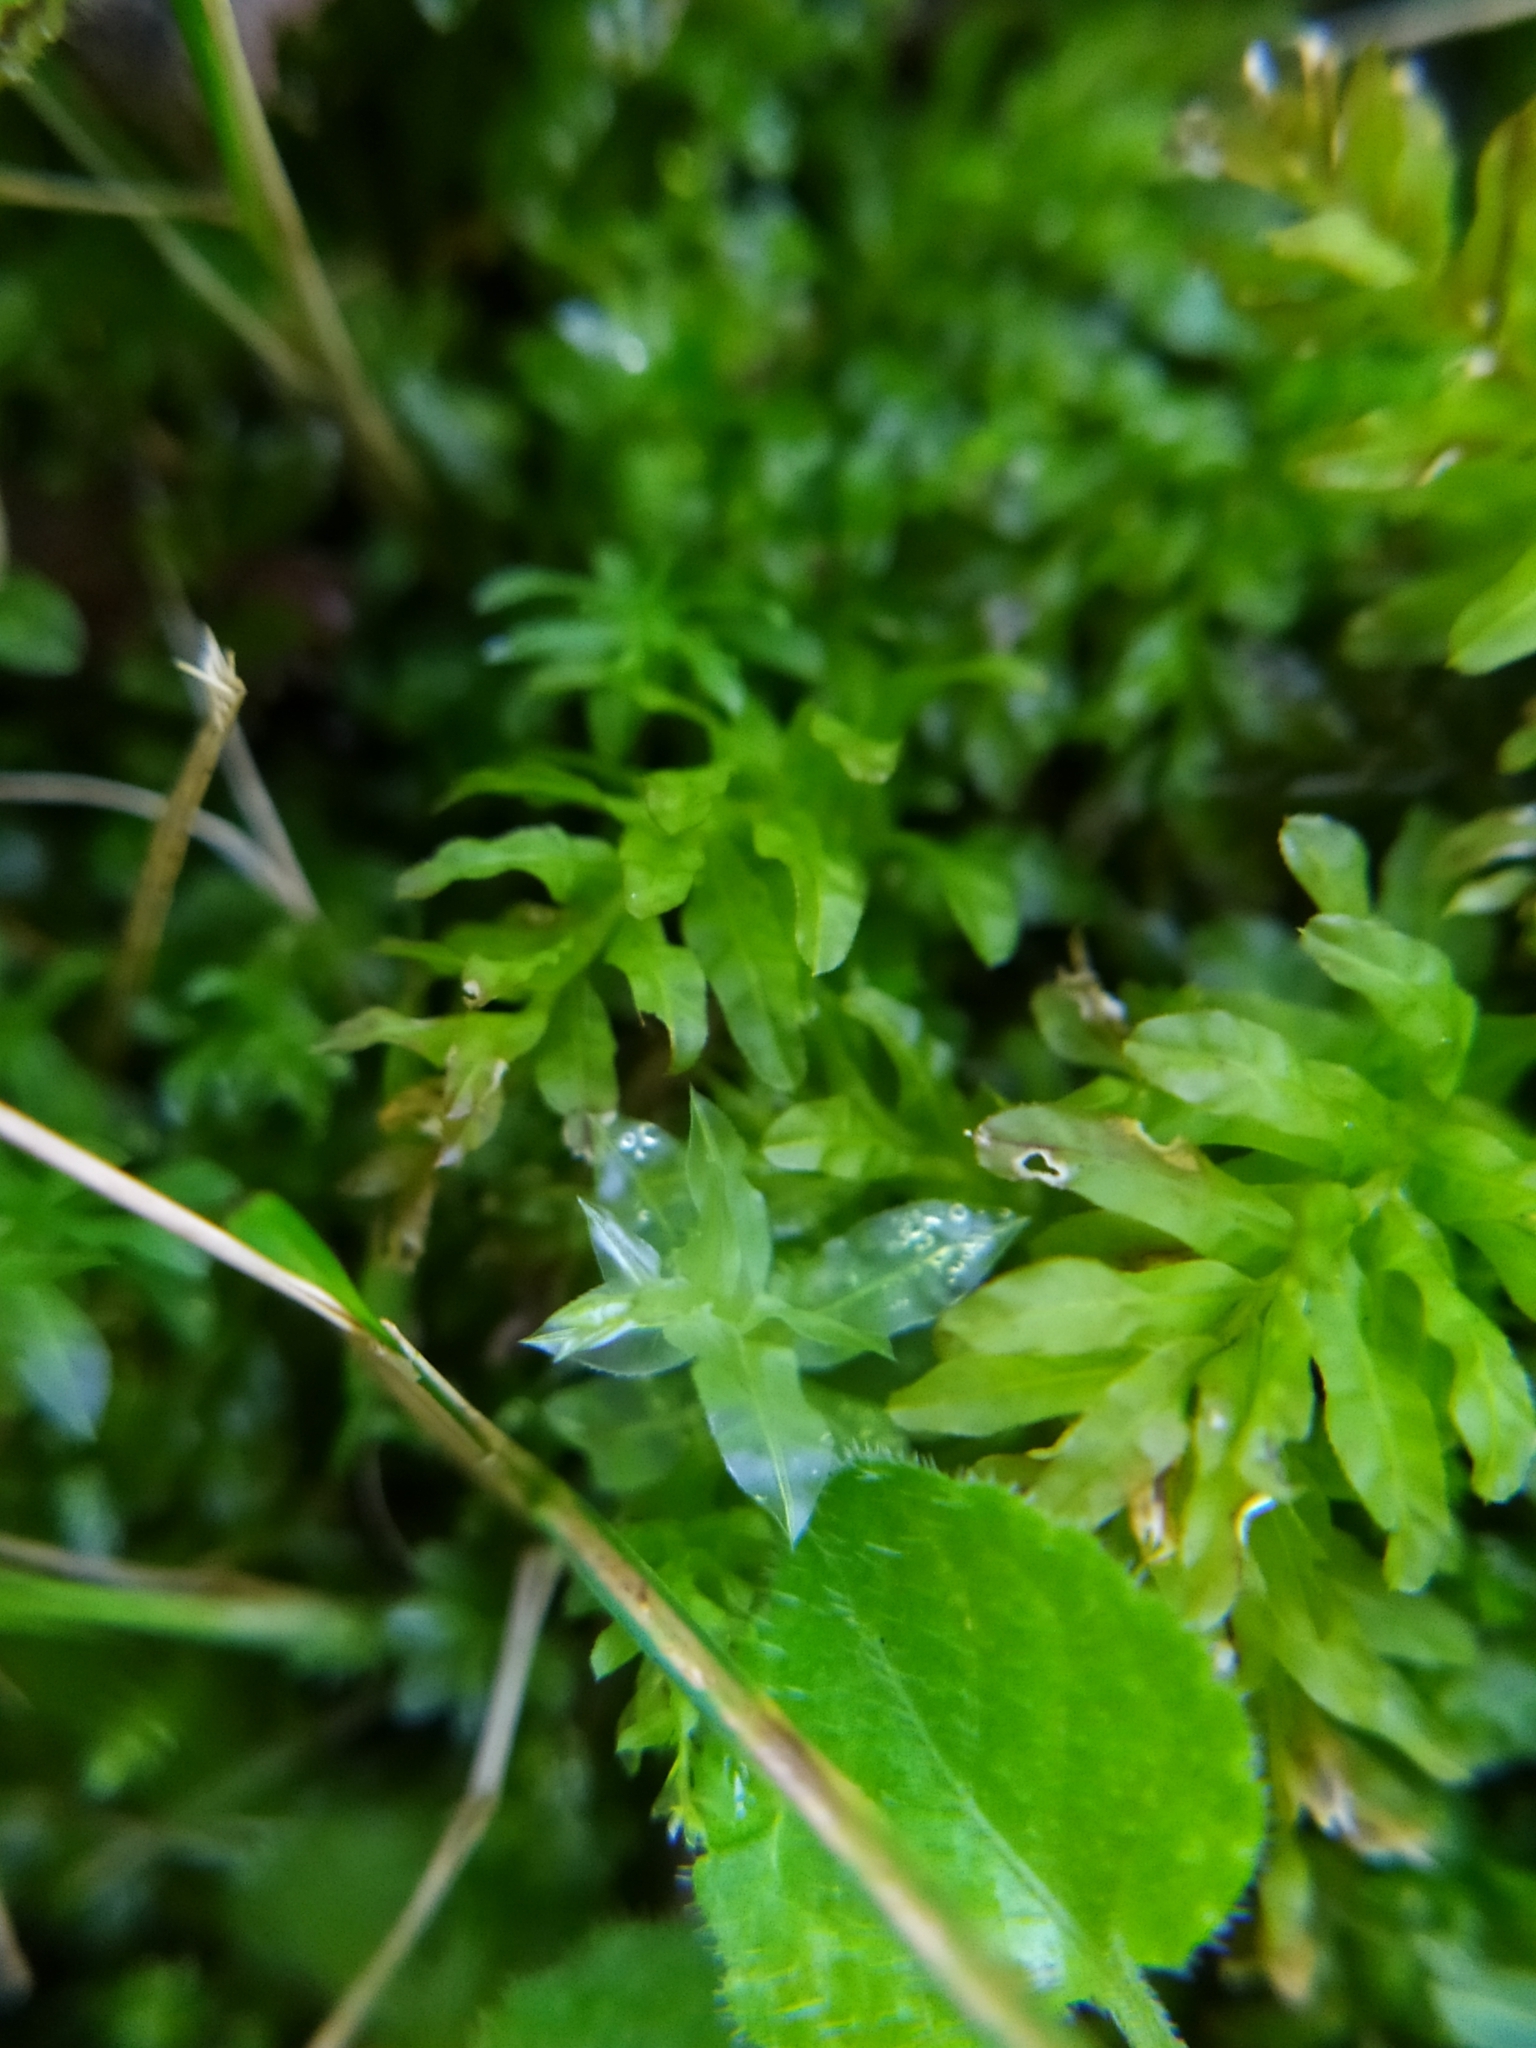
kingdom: Plantae
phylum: Bryophyta
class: Bryopsida
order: Bryales
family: Mniaceae
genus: Plagiomnium
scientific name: Plagiomnium undulatum
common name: Hart's-tongue thyme-moss
